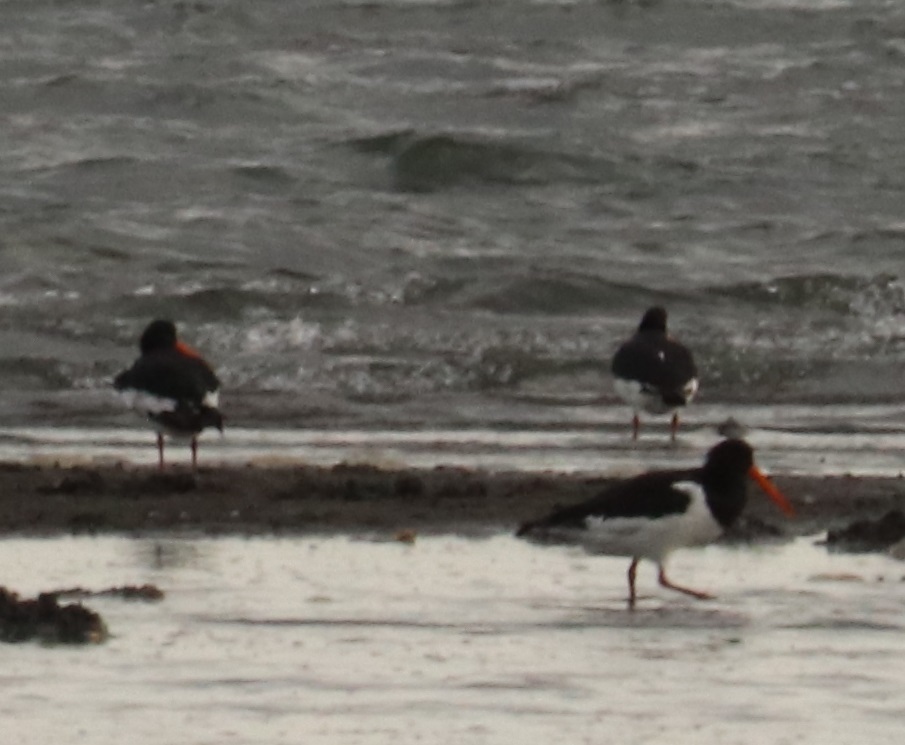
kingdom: Animalia
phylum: Chordata
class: Aves
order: Charadriiformes
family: Haematopodidae
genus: Haematopus
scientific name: Haematopus ostralegus
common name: Eurasian oystercatcher
